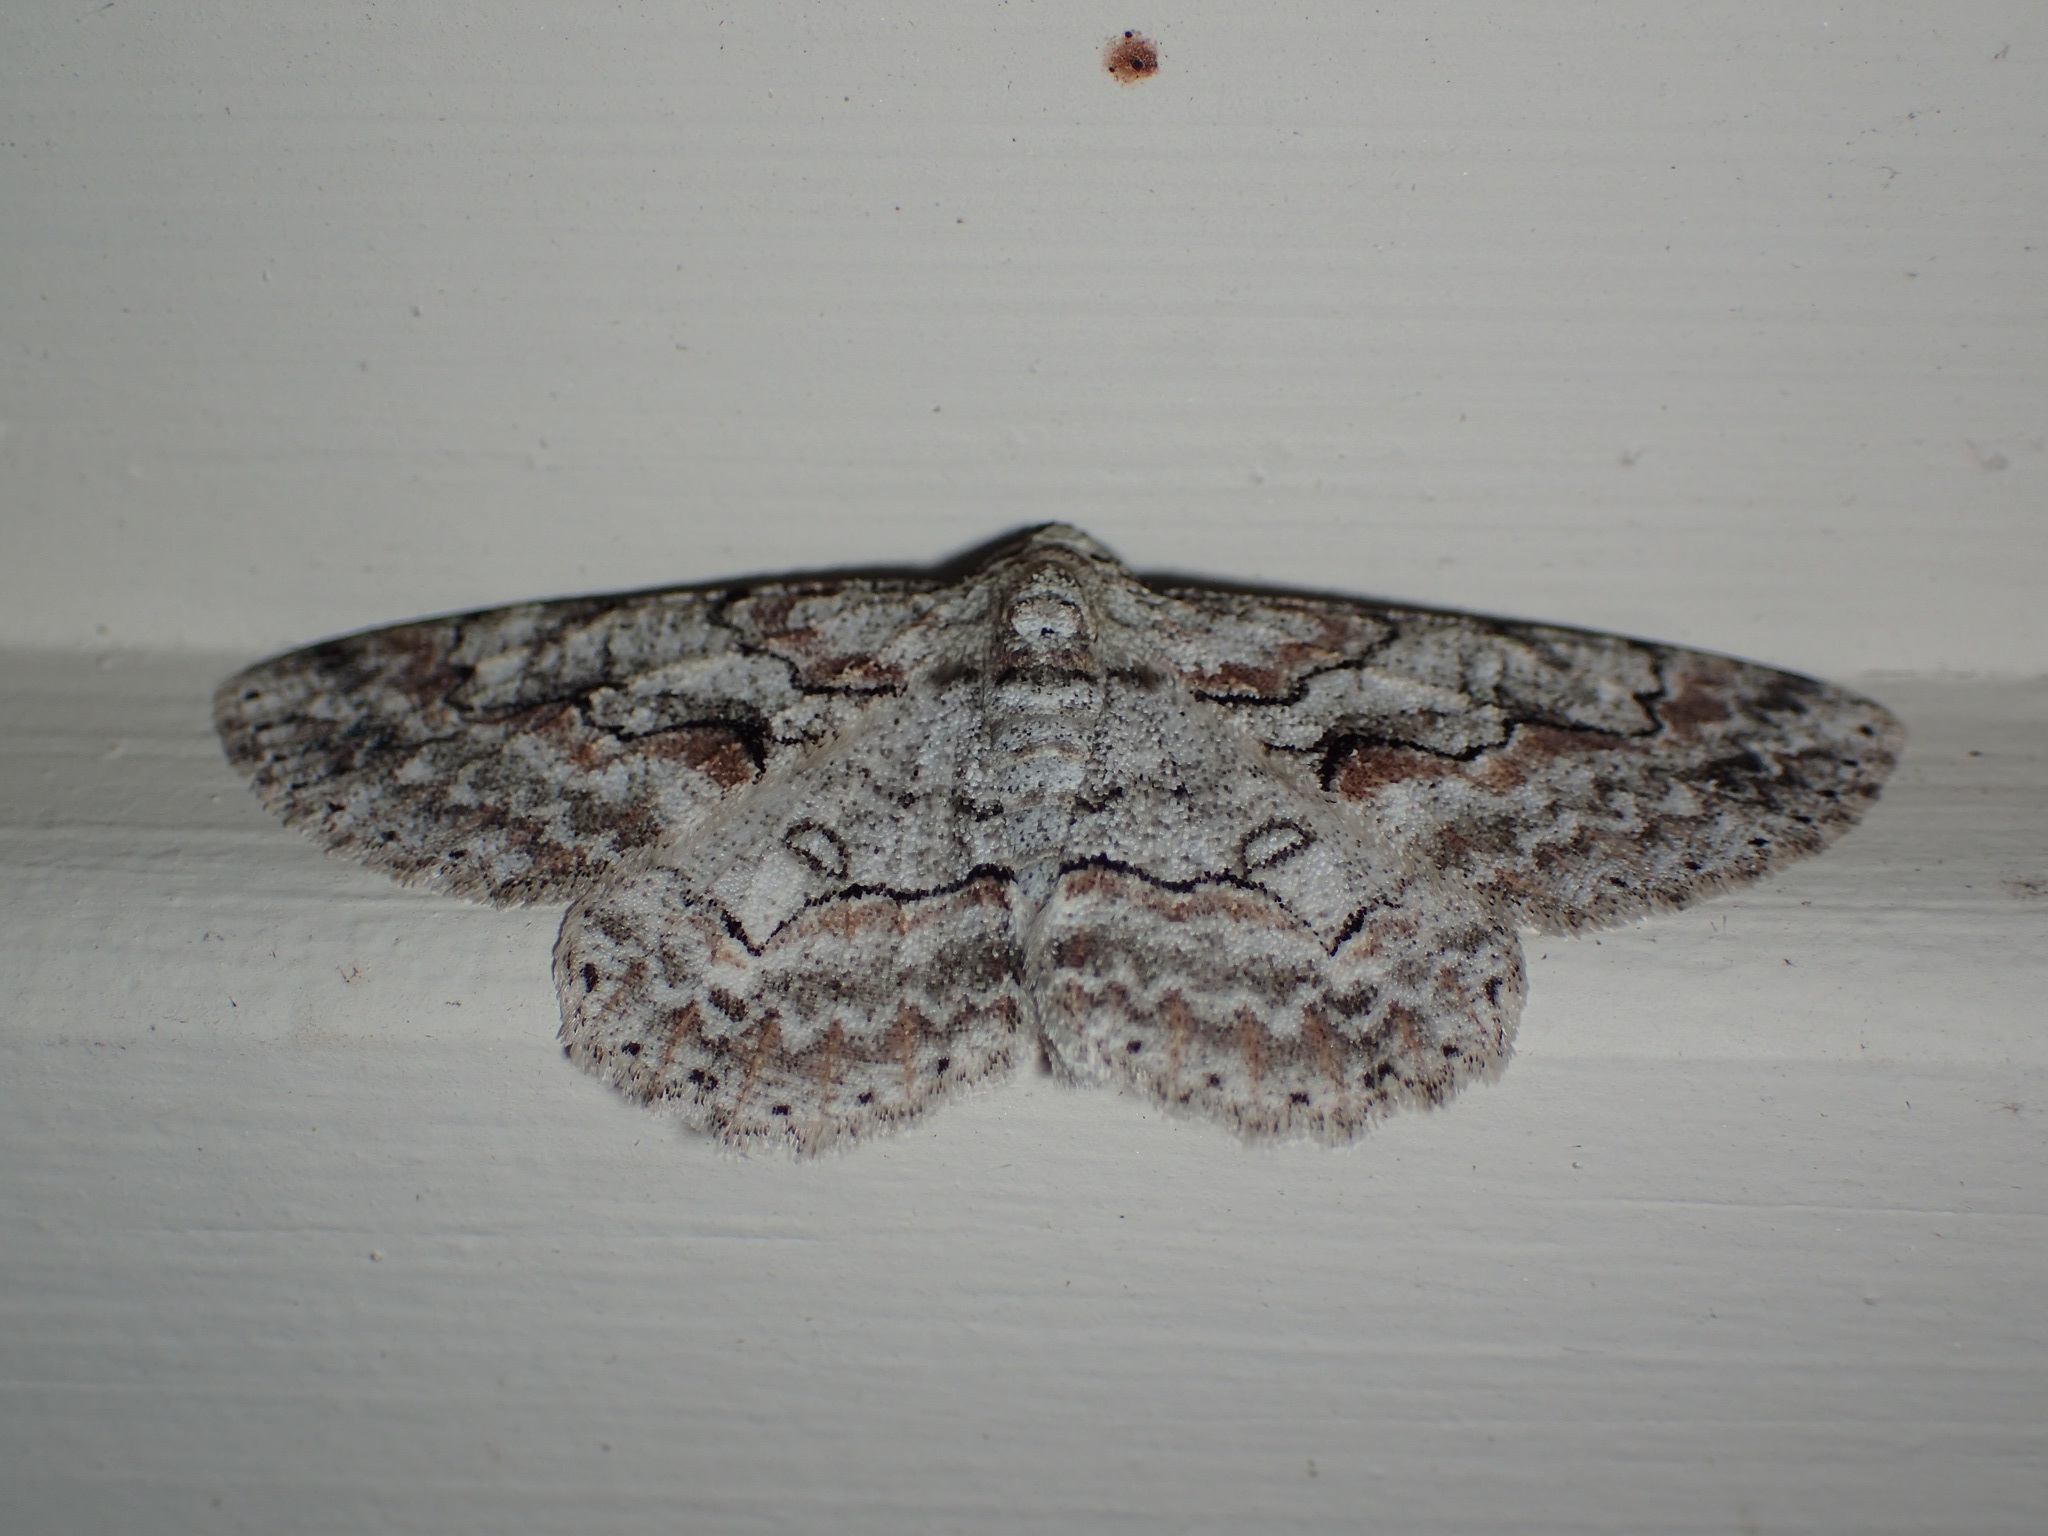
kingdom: Animalia
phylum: Arthropoda
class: Insecta
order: Lepidoptera
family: Geometridae
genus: Iridopsis
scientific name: Iridopsis defectaria
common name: Brown-shaded gray
